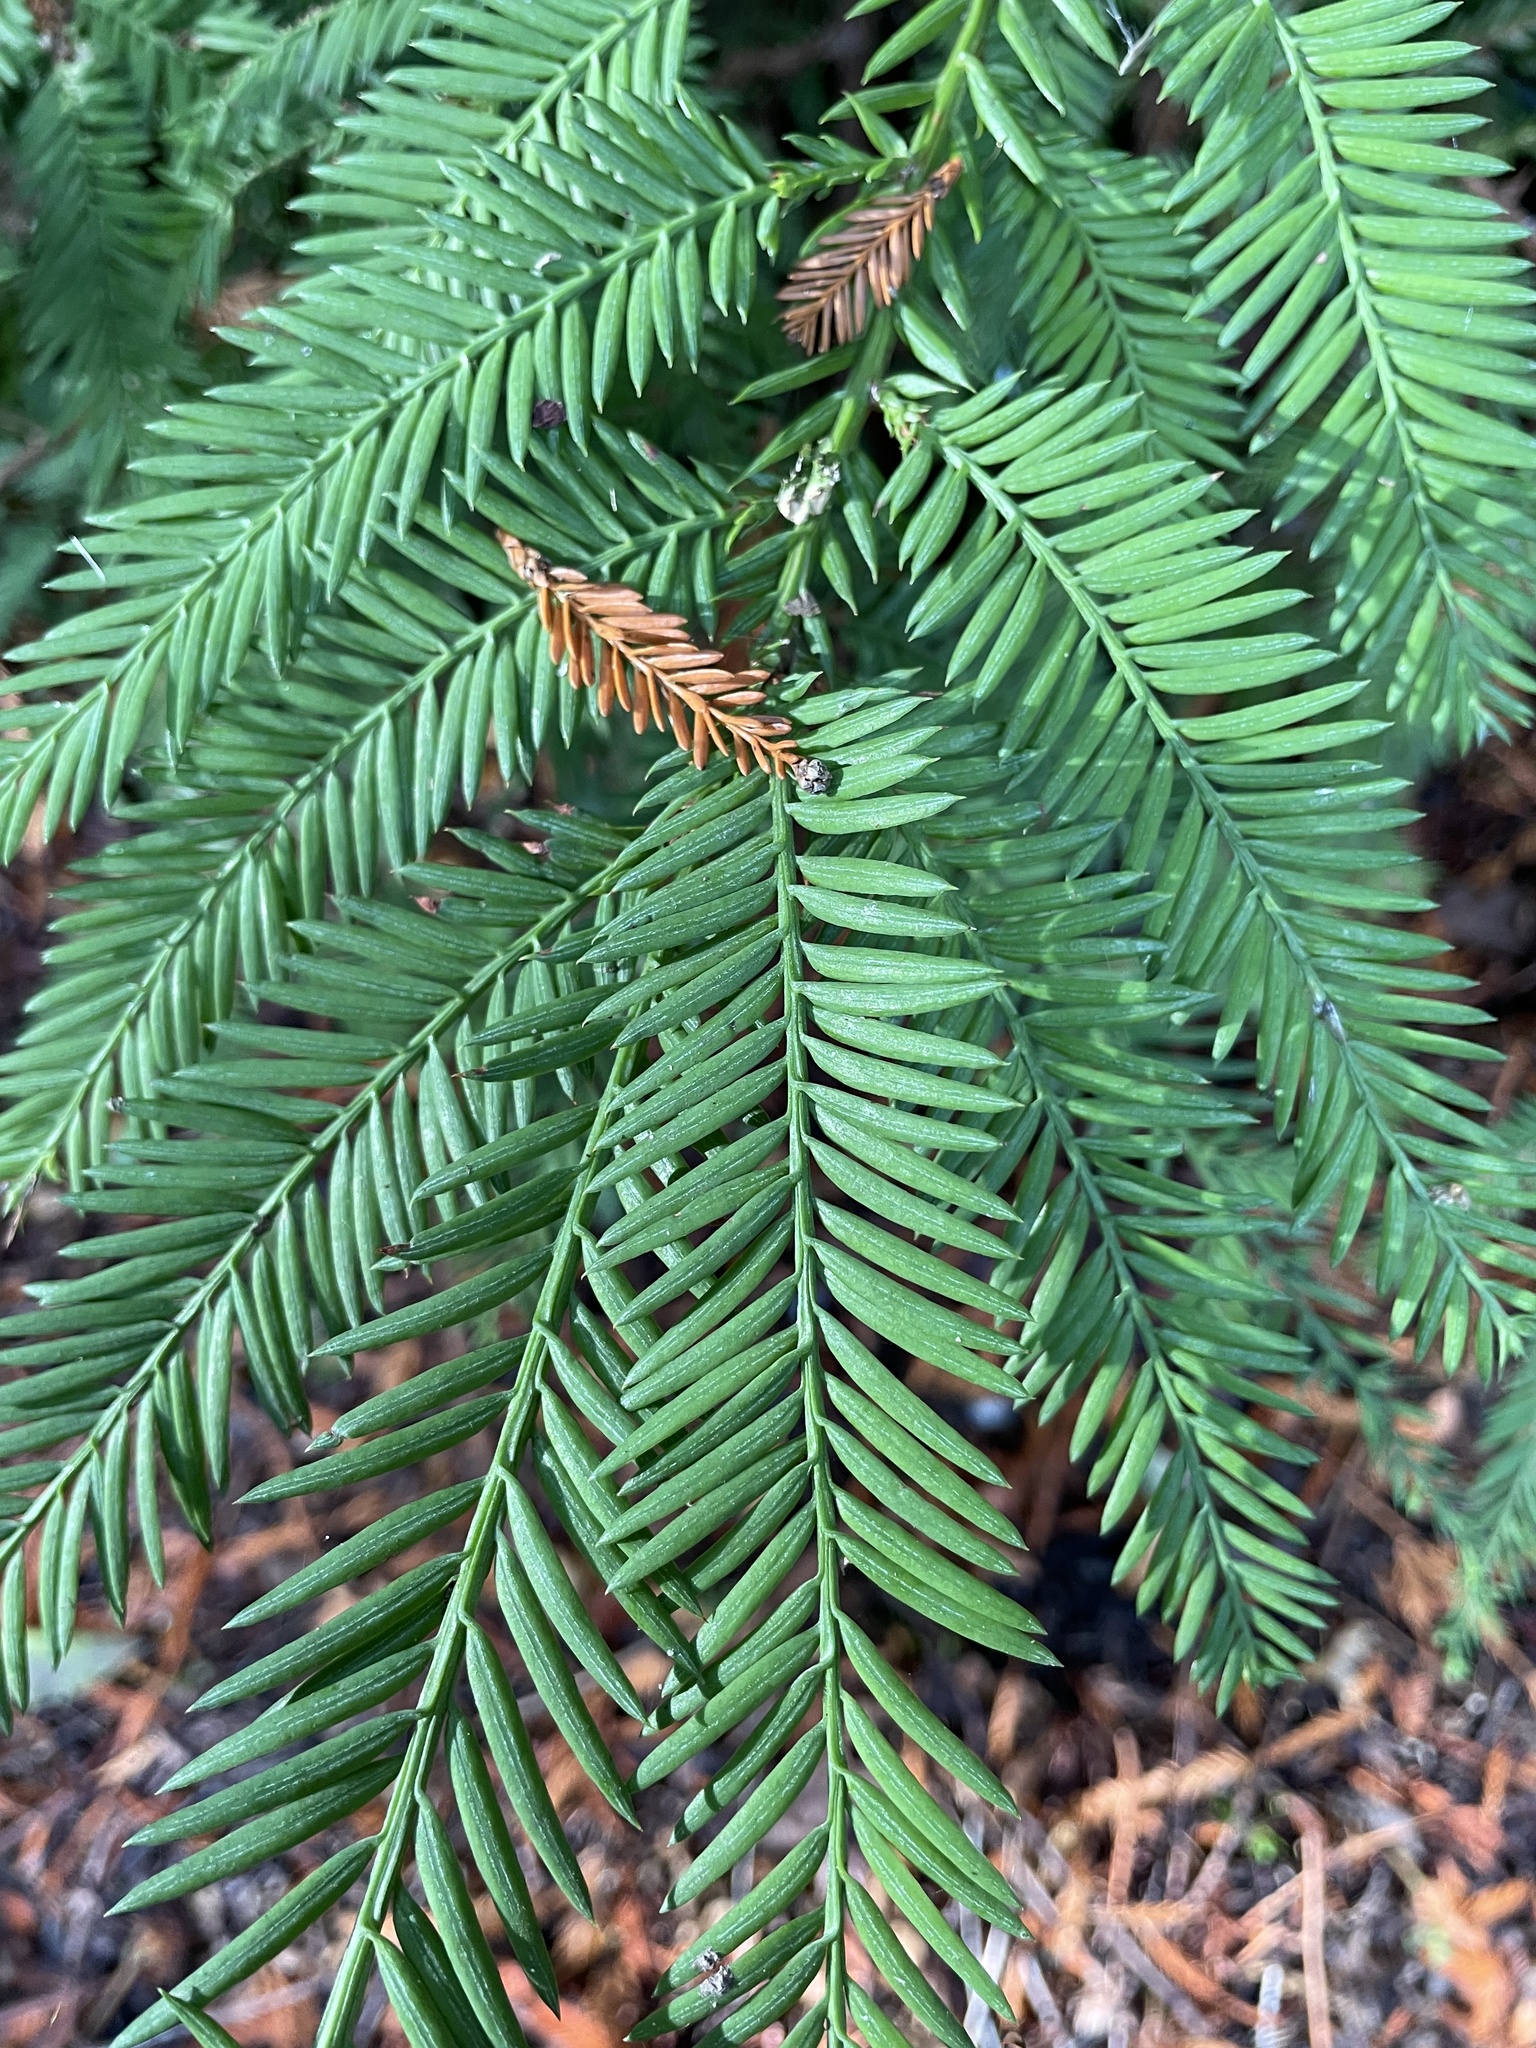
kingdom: Plantae
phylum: Tracheophyta
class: Pinopsida
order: Pinales
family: Cupressaceae
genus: Sequoia
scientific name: Sequoia sempervirens
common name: Coast redwood
